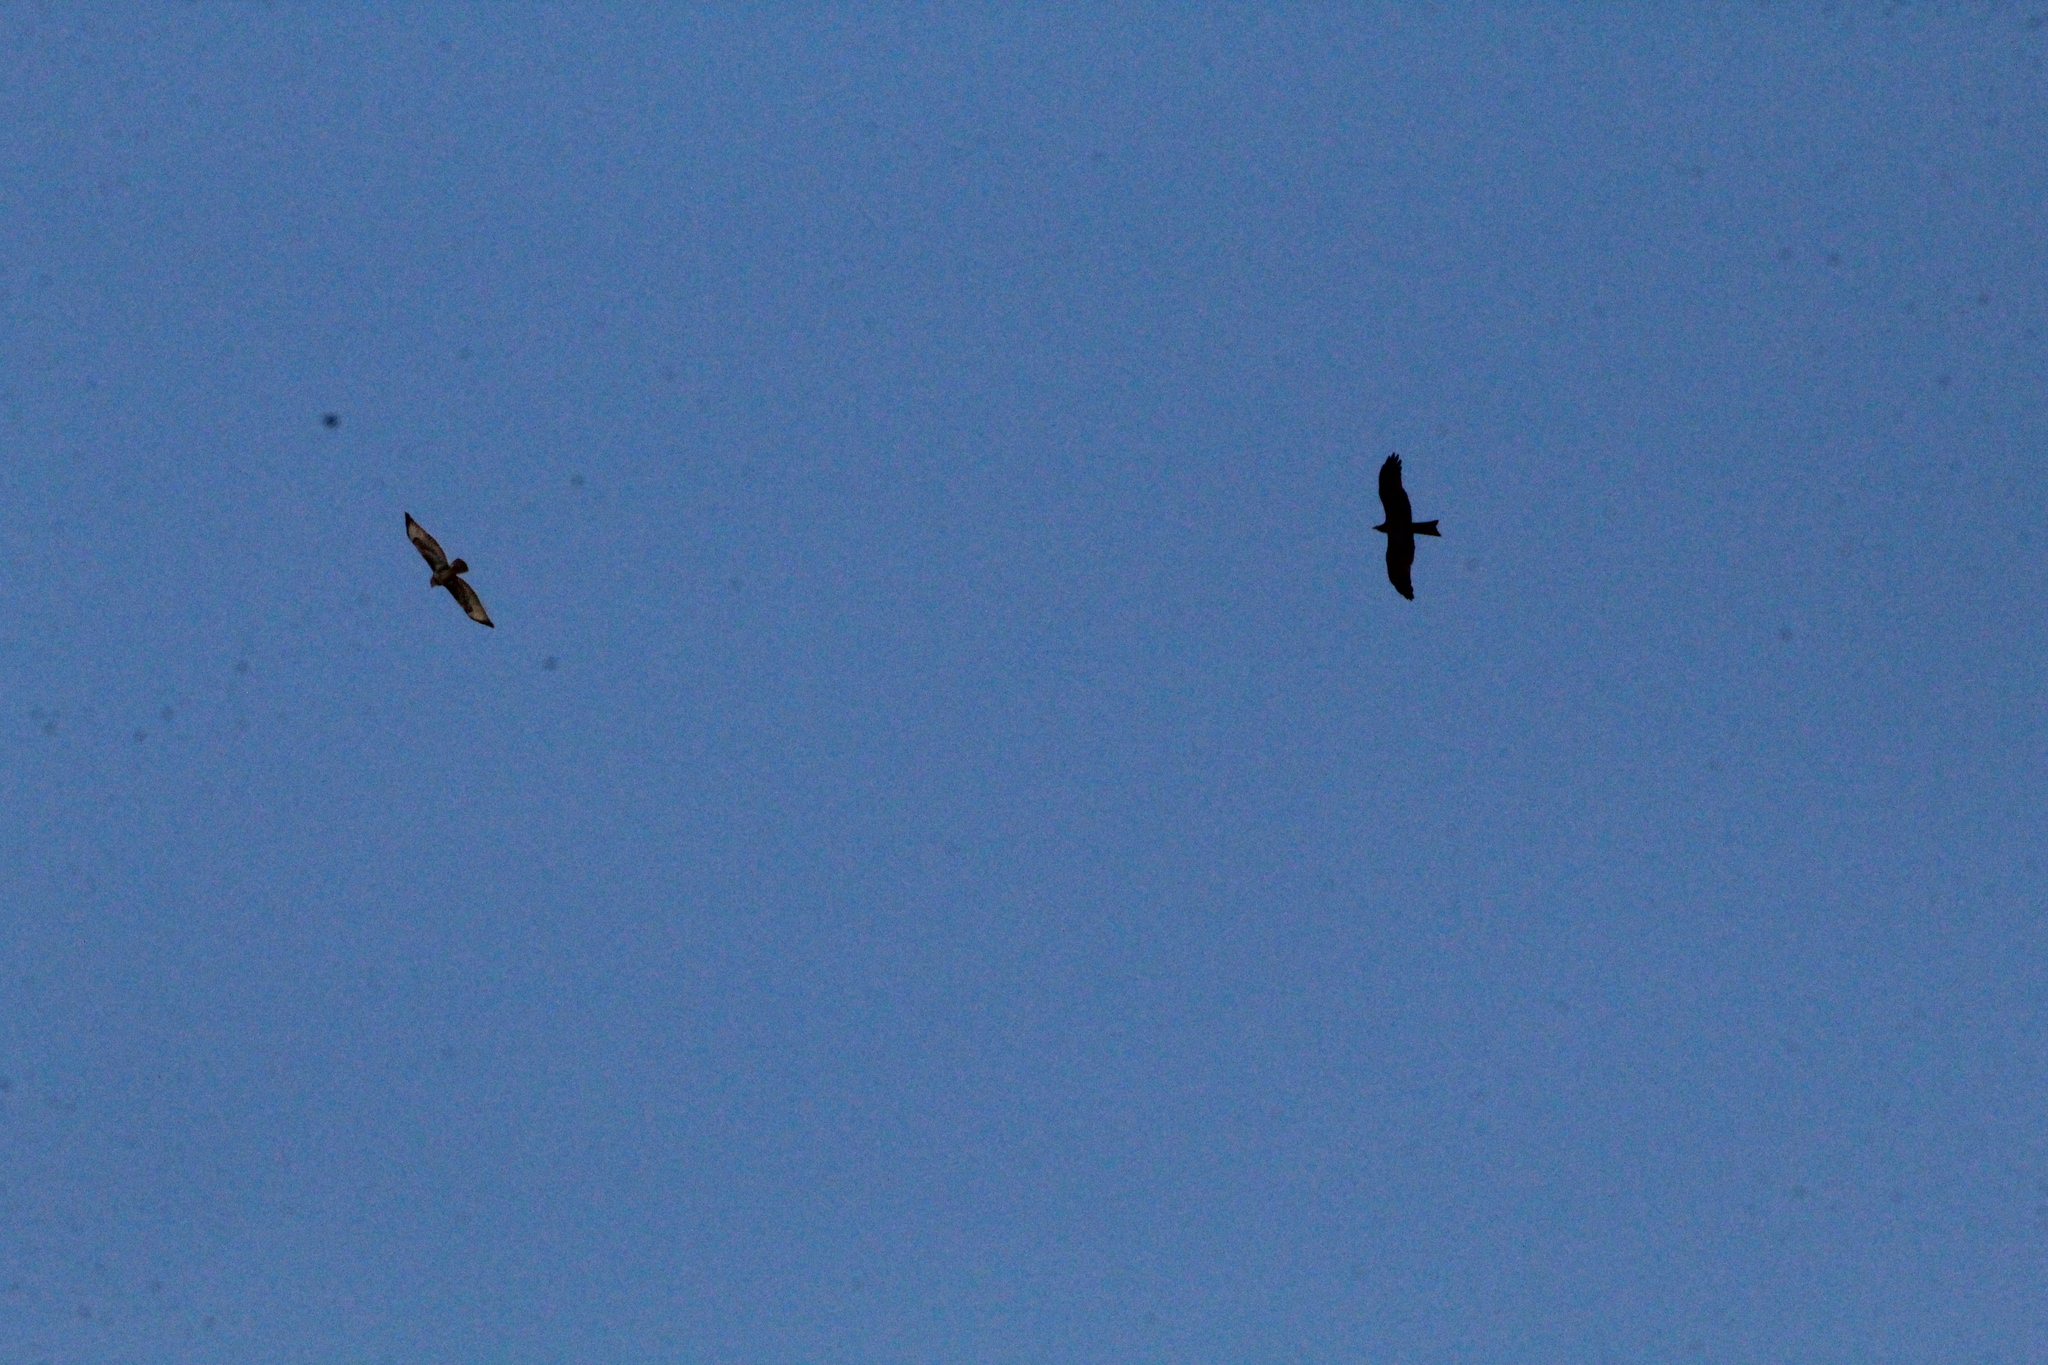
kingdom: Animalia
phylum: Chordata
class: Aves
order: Accipitriformes
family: Accipitridae
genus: Buteo
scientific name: Buteo buteo
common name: Common buzzard
